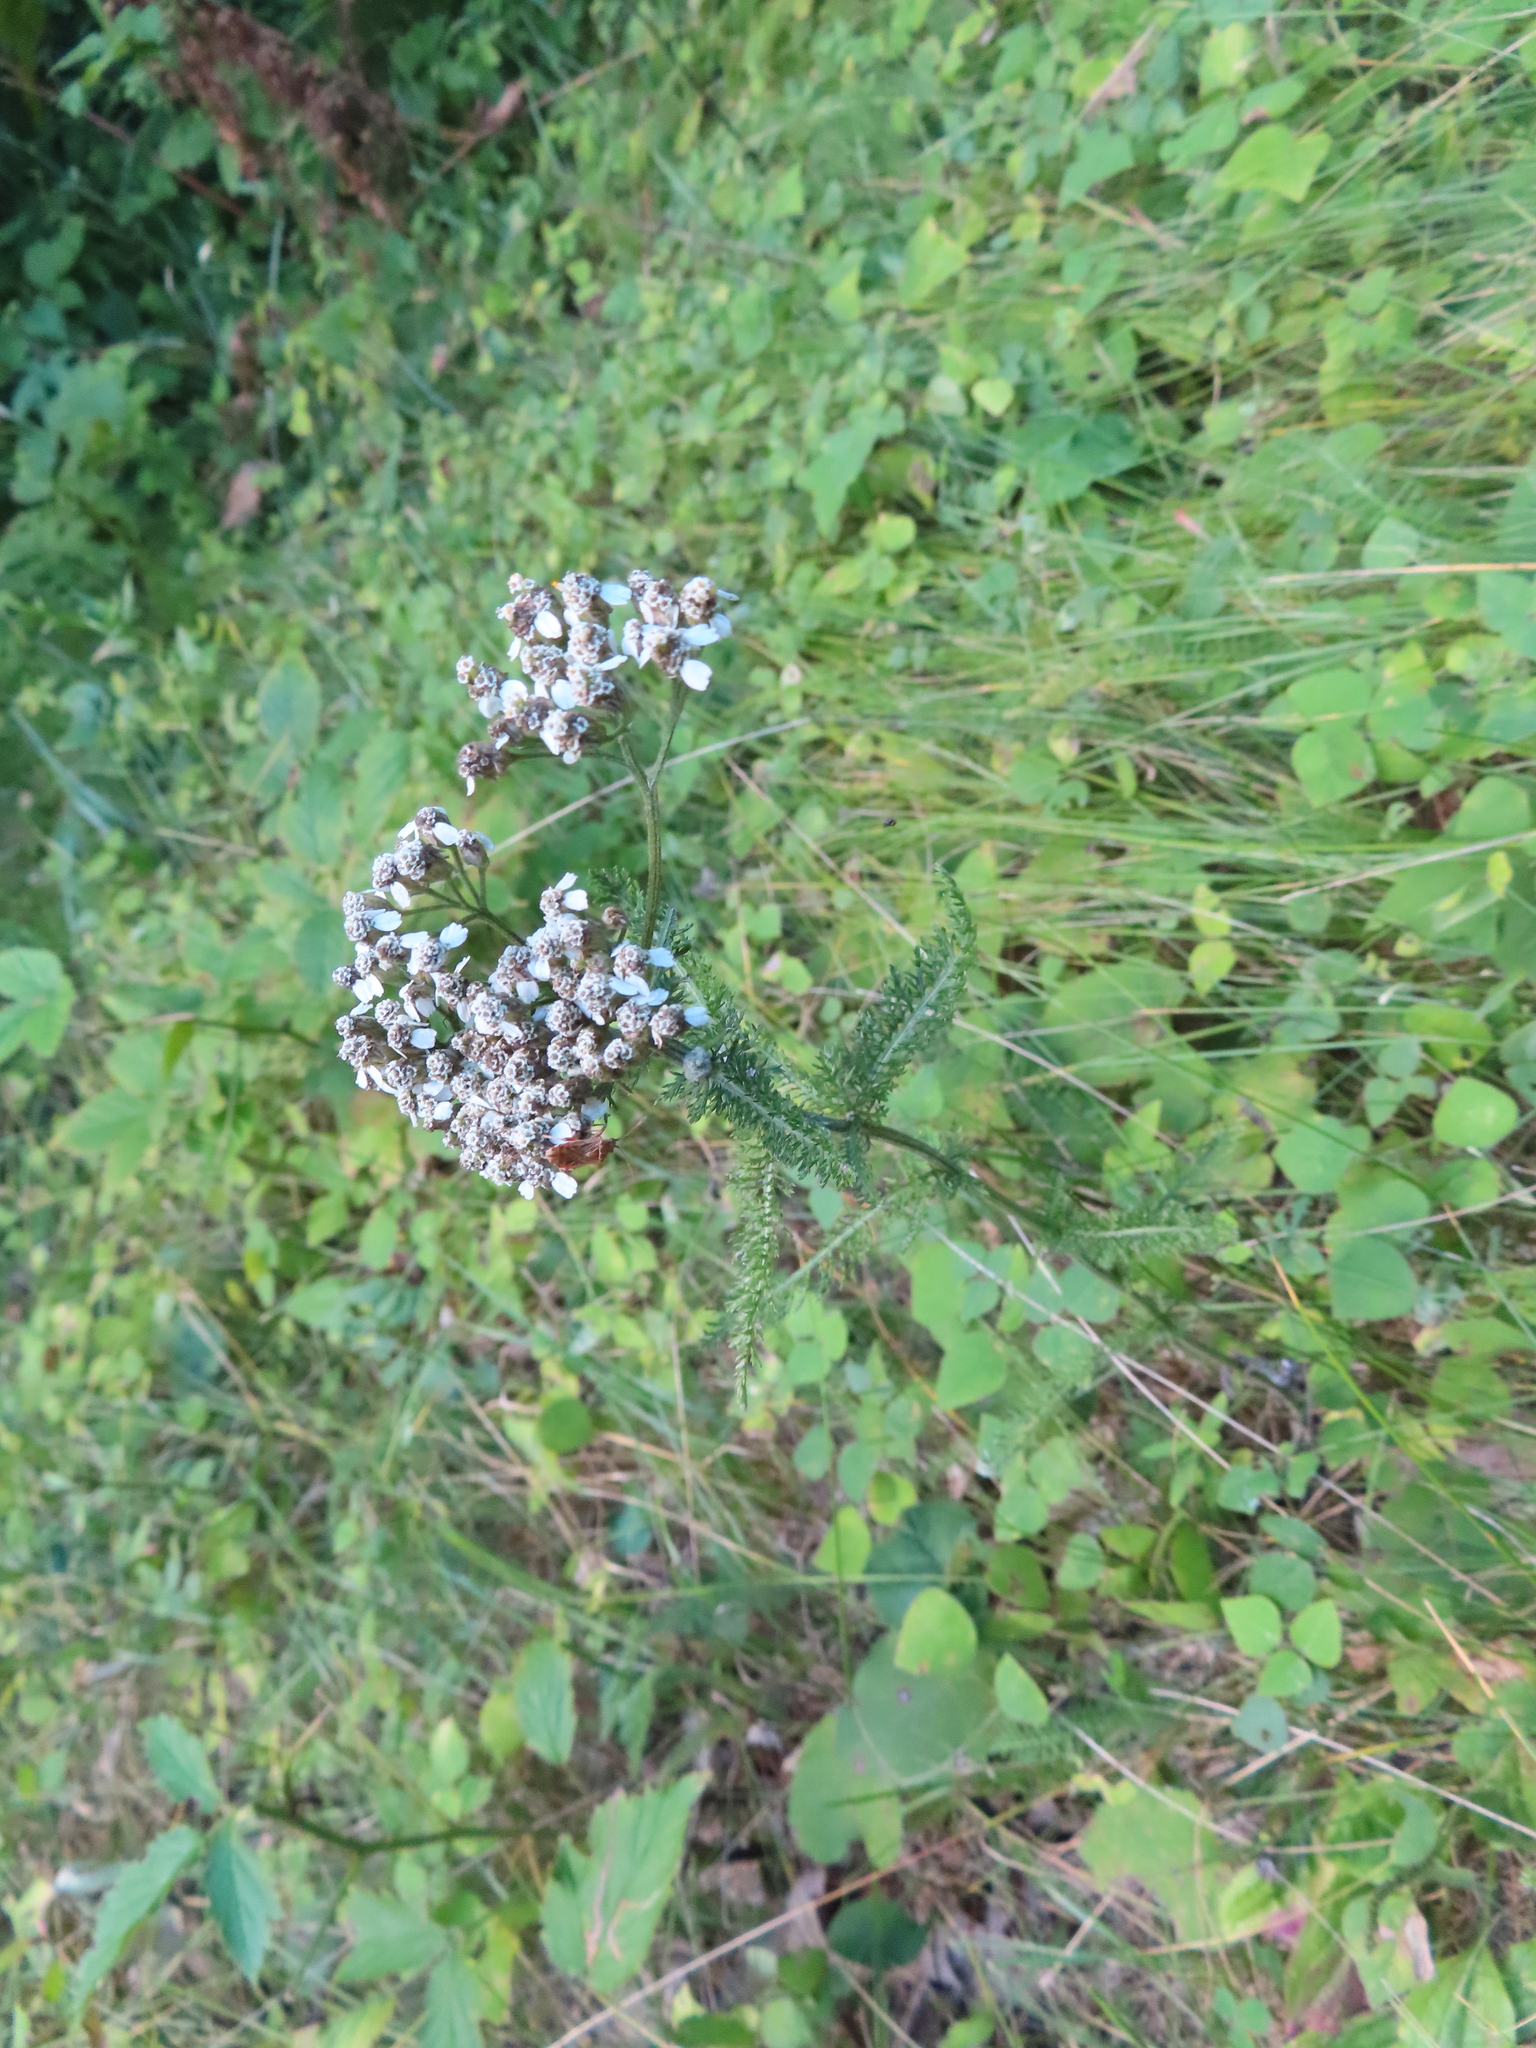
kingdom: Plantae
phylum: Tracheophyta
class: Magnoliopsida
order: Asterales
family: Asteraceae
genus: Achillea
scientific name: Achillea millefolium
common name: Yarrow
